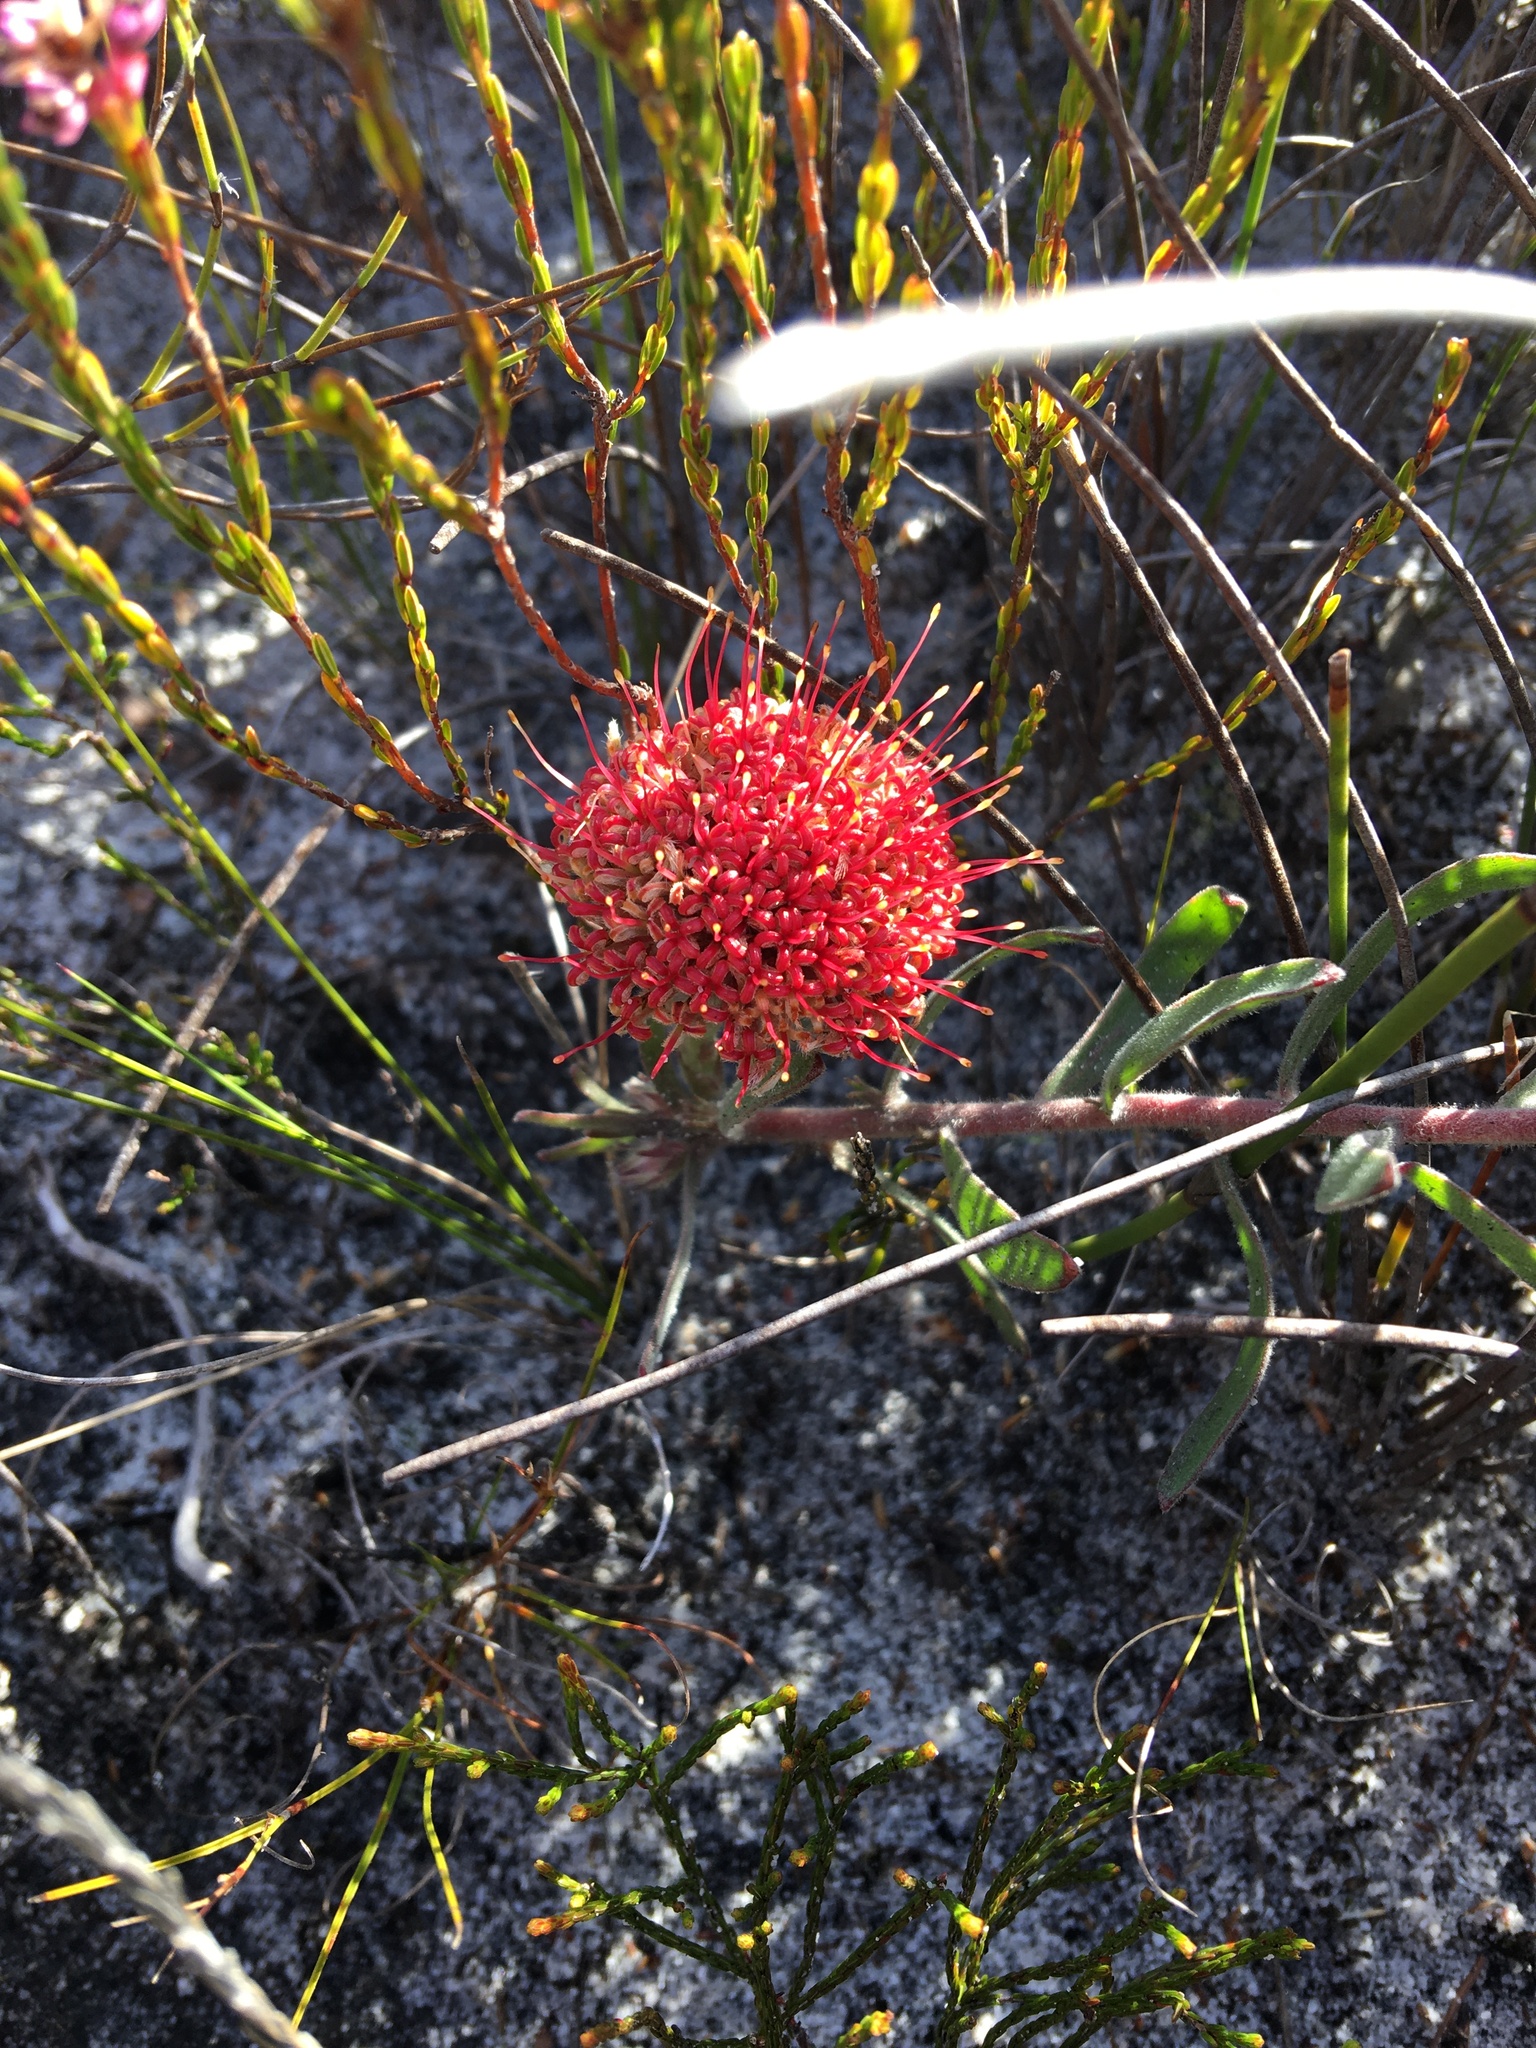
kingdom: Plantae
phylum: Tracheophyta
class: Magnoliopsida
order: Proteales
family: Proteaceae
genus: Leucospermum
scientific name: Leucospermum prostratum
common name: Yellow-trailing pincushion
